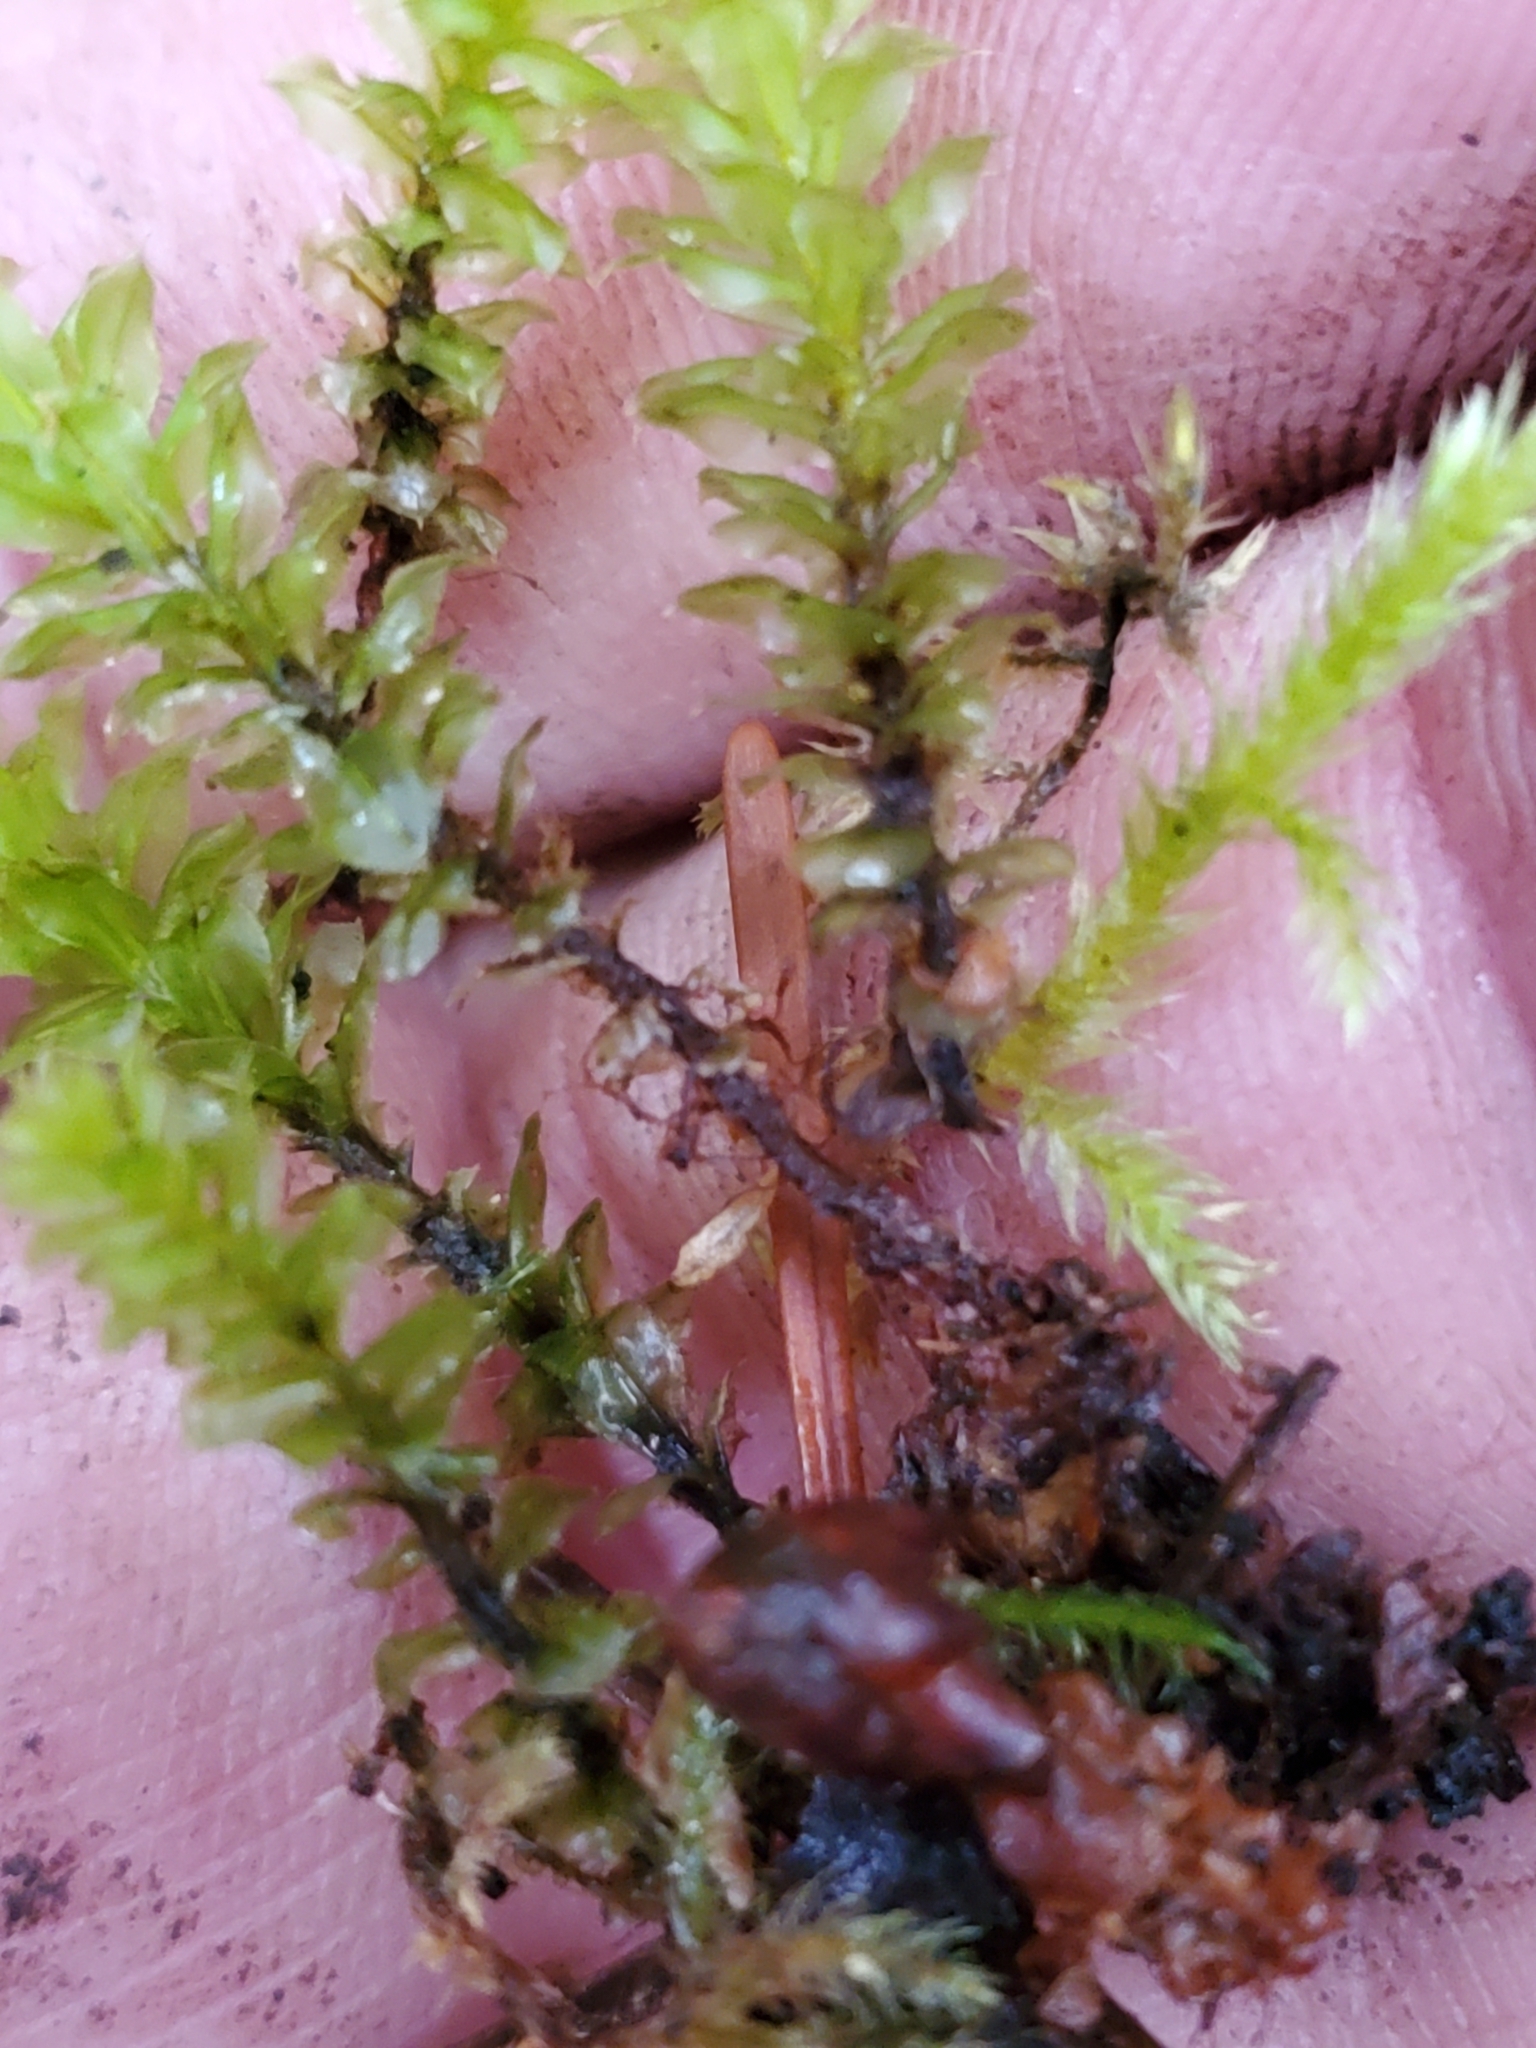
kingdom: Plantae
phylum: Bryophyta
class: Bryopsida
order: Bryales
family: Mniaceae
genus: Plagiomnium
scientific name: Plagiomnium venustum
